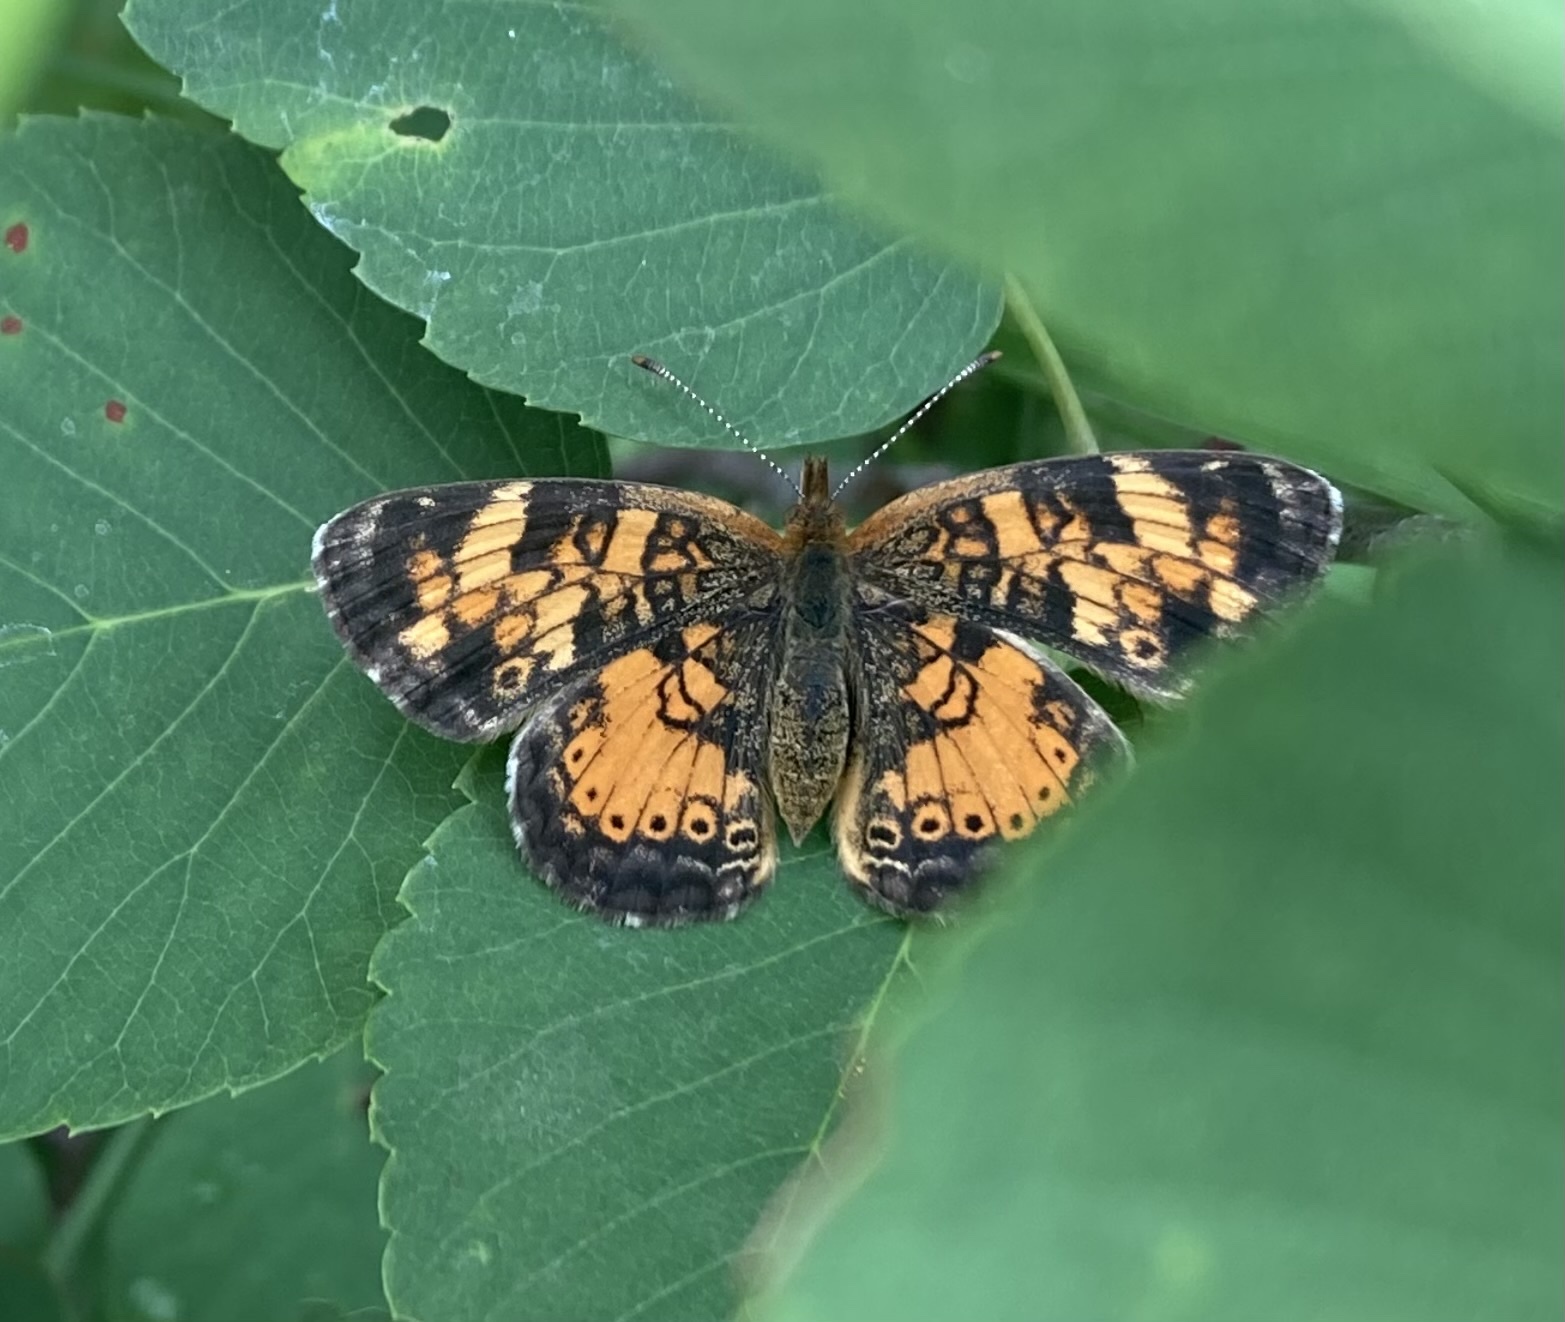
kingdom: Animalia
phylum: Arthropoda
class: Insecta
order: Lepidoptera
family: Nymphalidae
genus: Phyciodes
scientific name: Phyciodes tharos
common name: Pearl crescent
